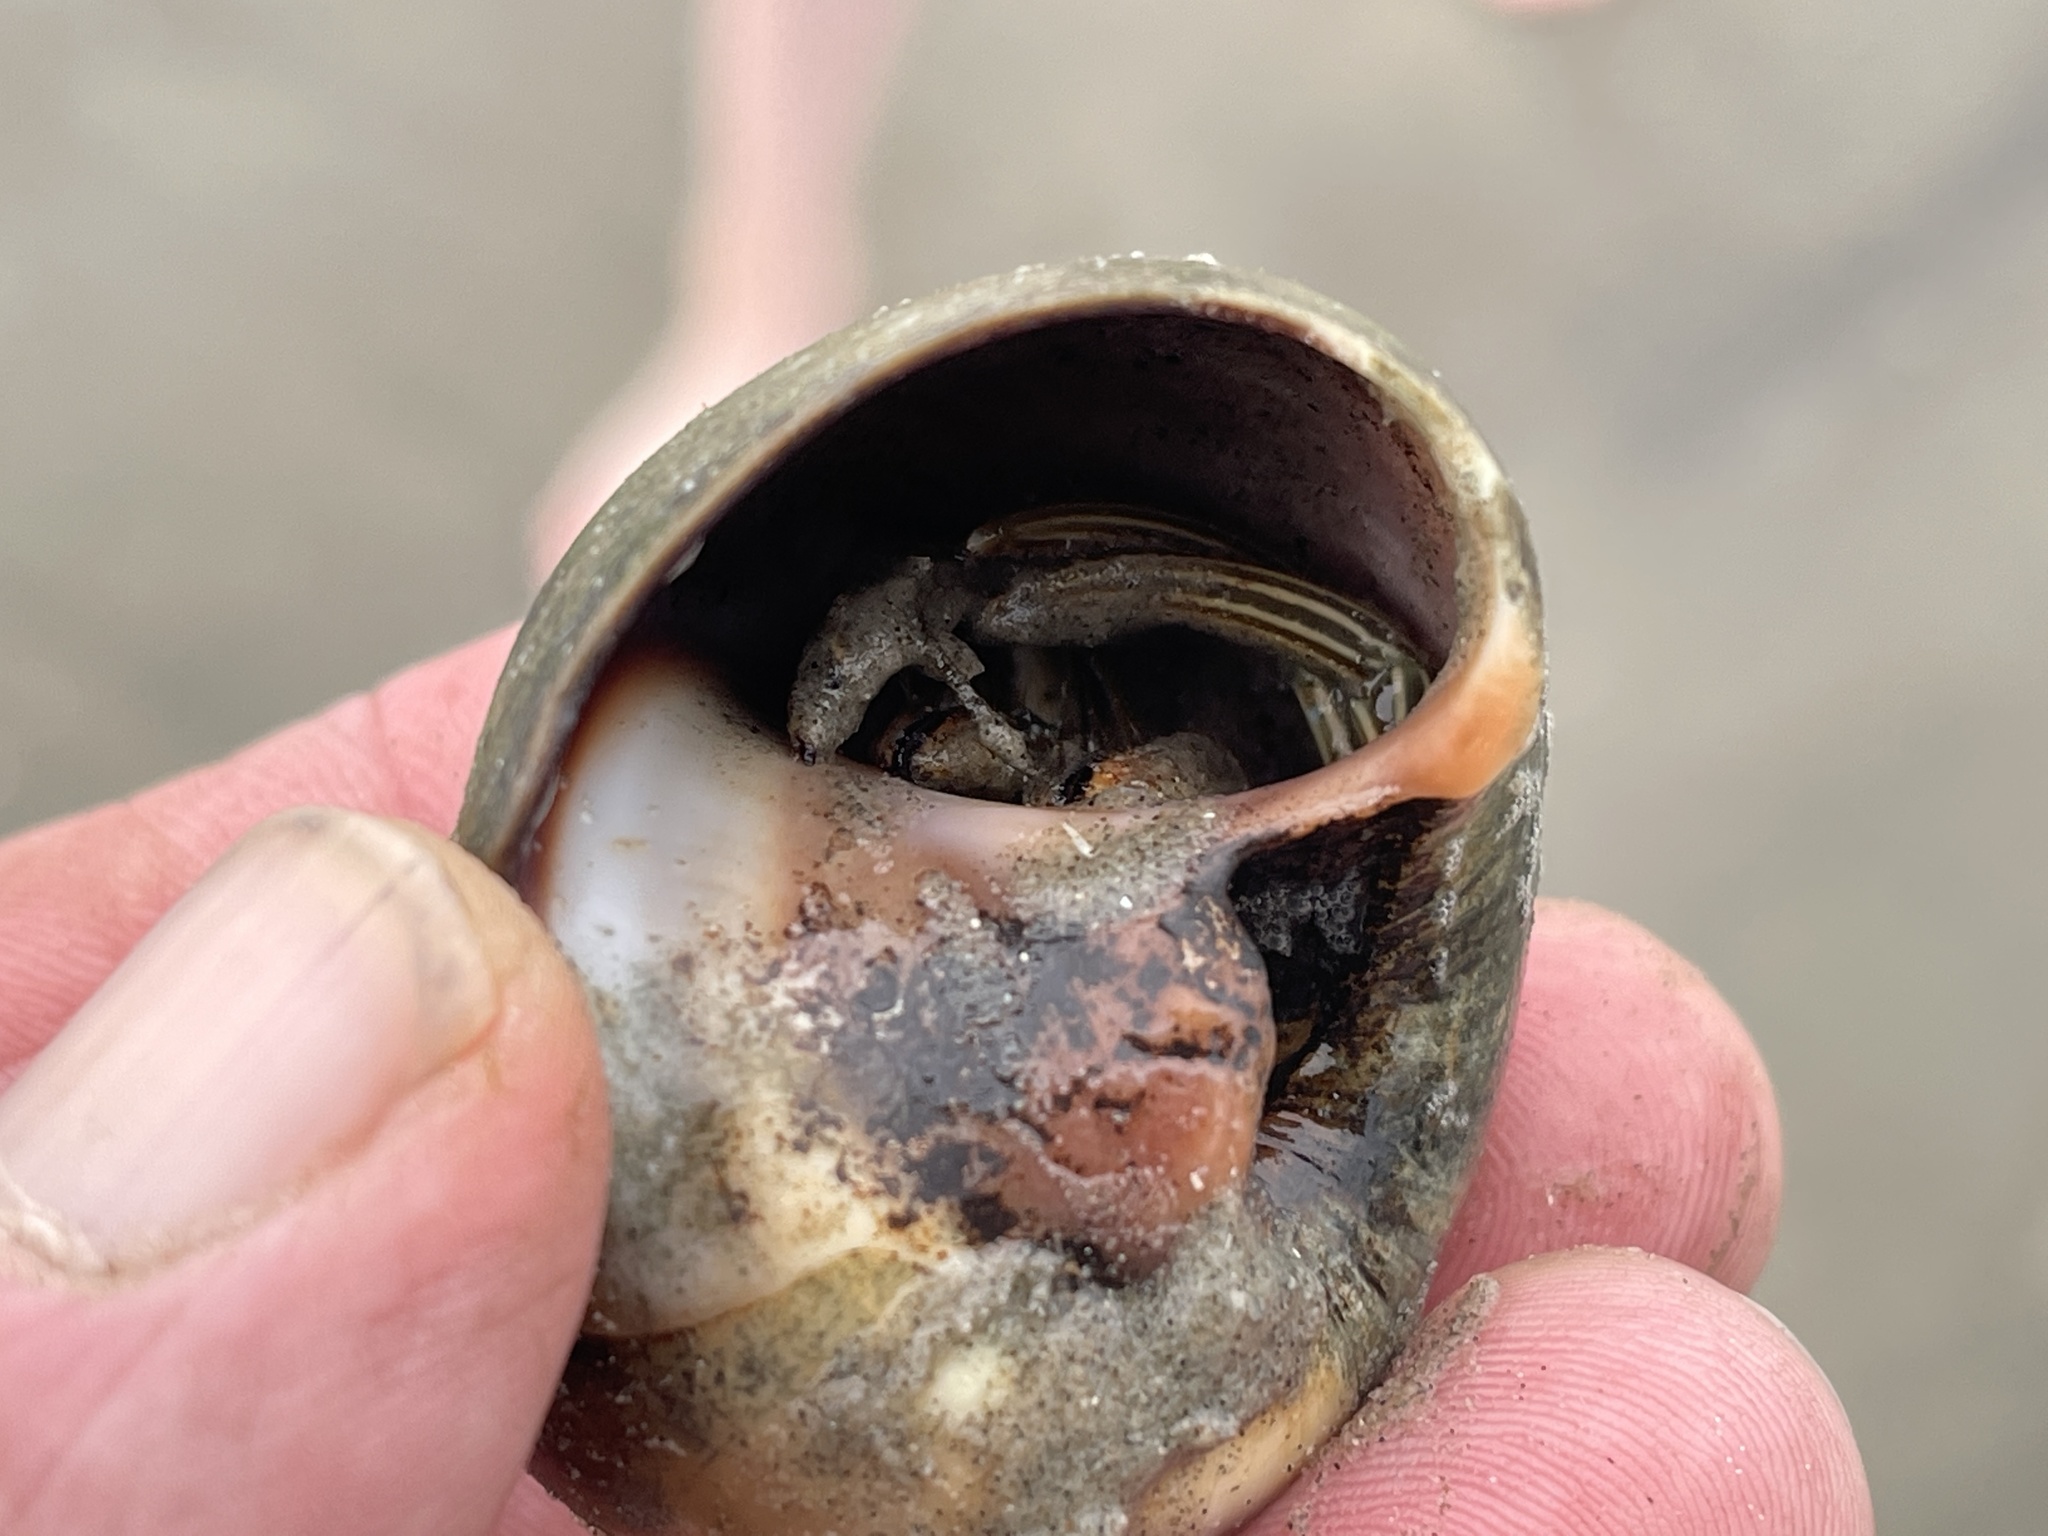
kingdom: Animalia
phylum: Arthropoda
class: Malacostraca
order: Decapoda
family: Diogenidae
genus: Clibanarius
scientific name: Clibanarius vittatus
